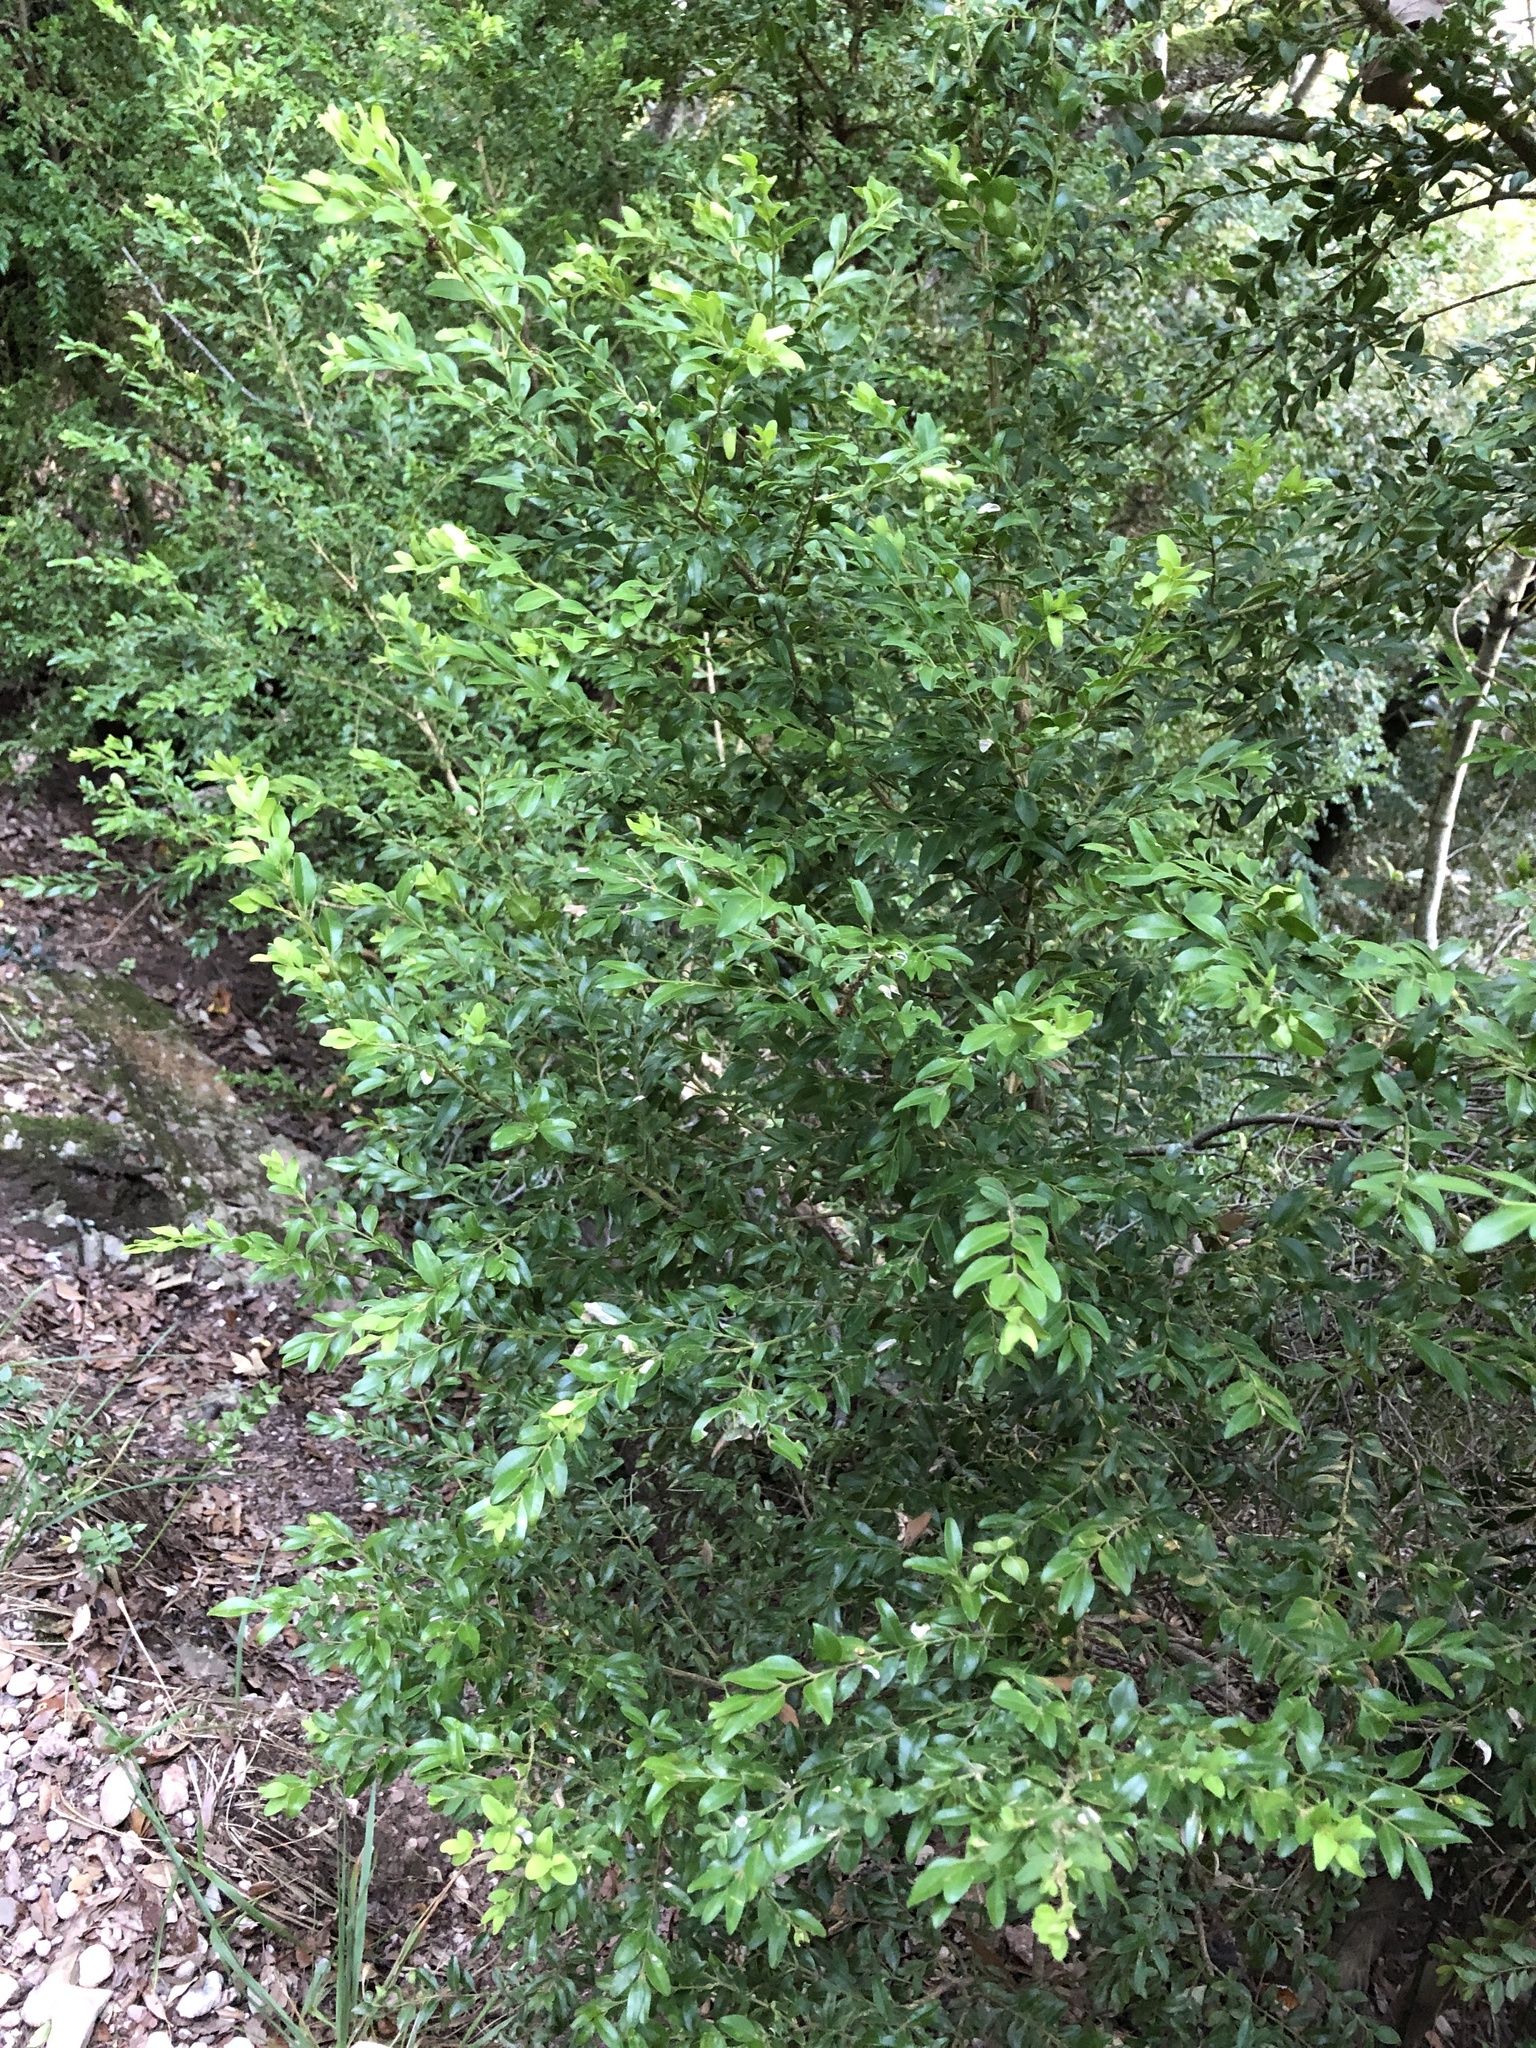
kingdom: Plantae
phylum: Tracheophyta
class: Magnoliopsida
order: Buxales
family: Buxaceae
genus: Buxus
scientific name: Buxus sempervirens
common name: Box
